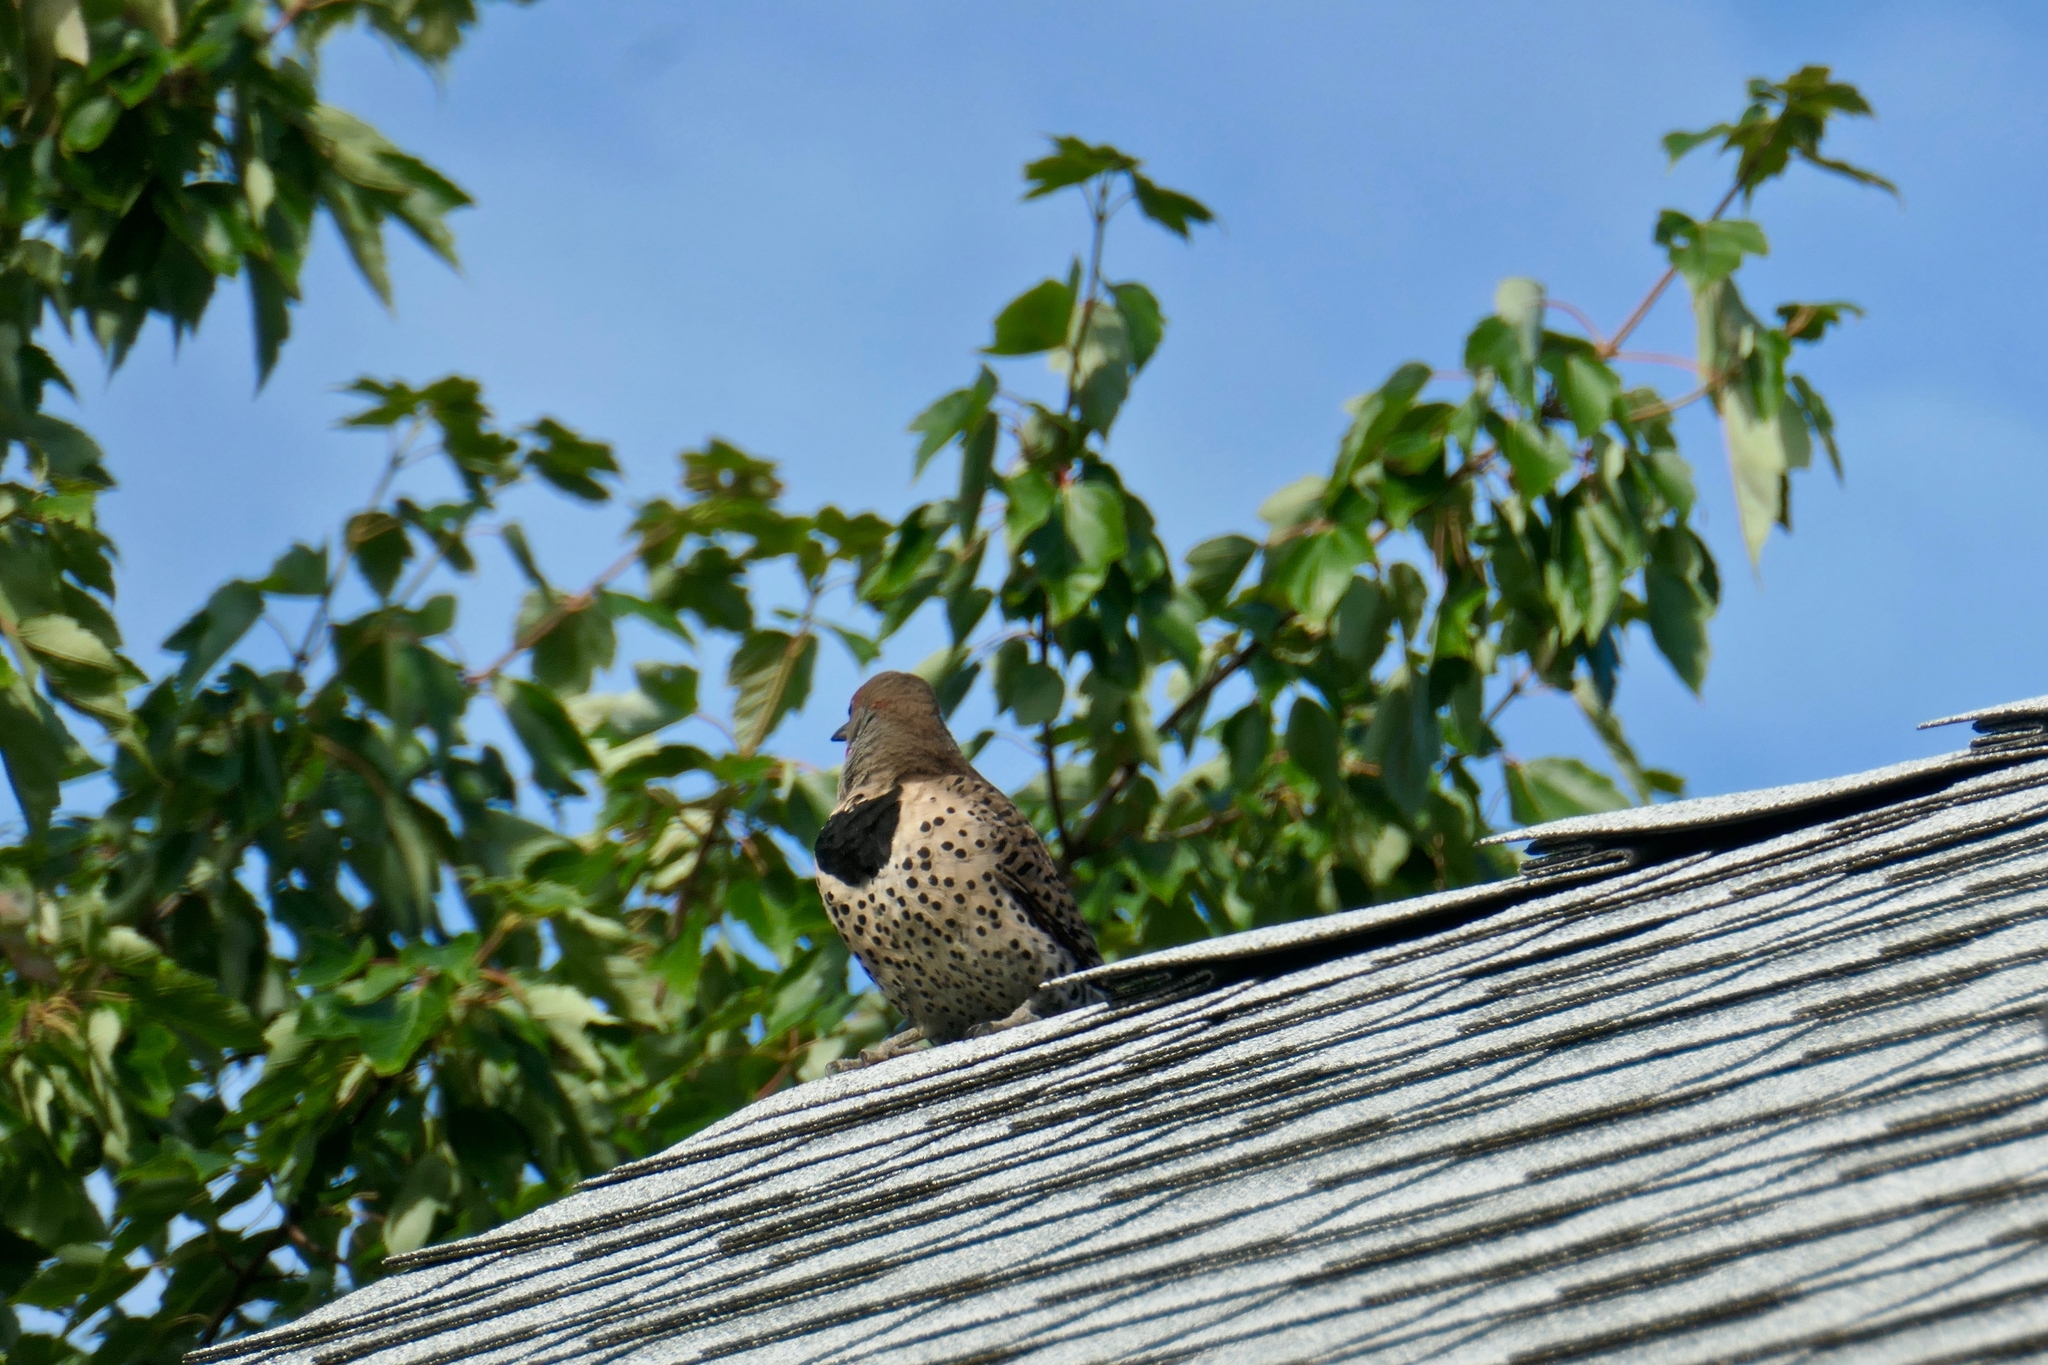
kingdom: Animalia
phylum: Chordata
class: Aves
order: Piciformes
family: Picidae
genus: Colaptes
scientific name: Colaptes auratus
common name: Northern flicker
